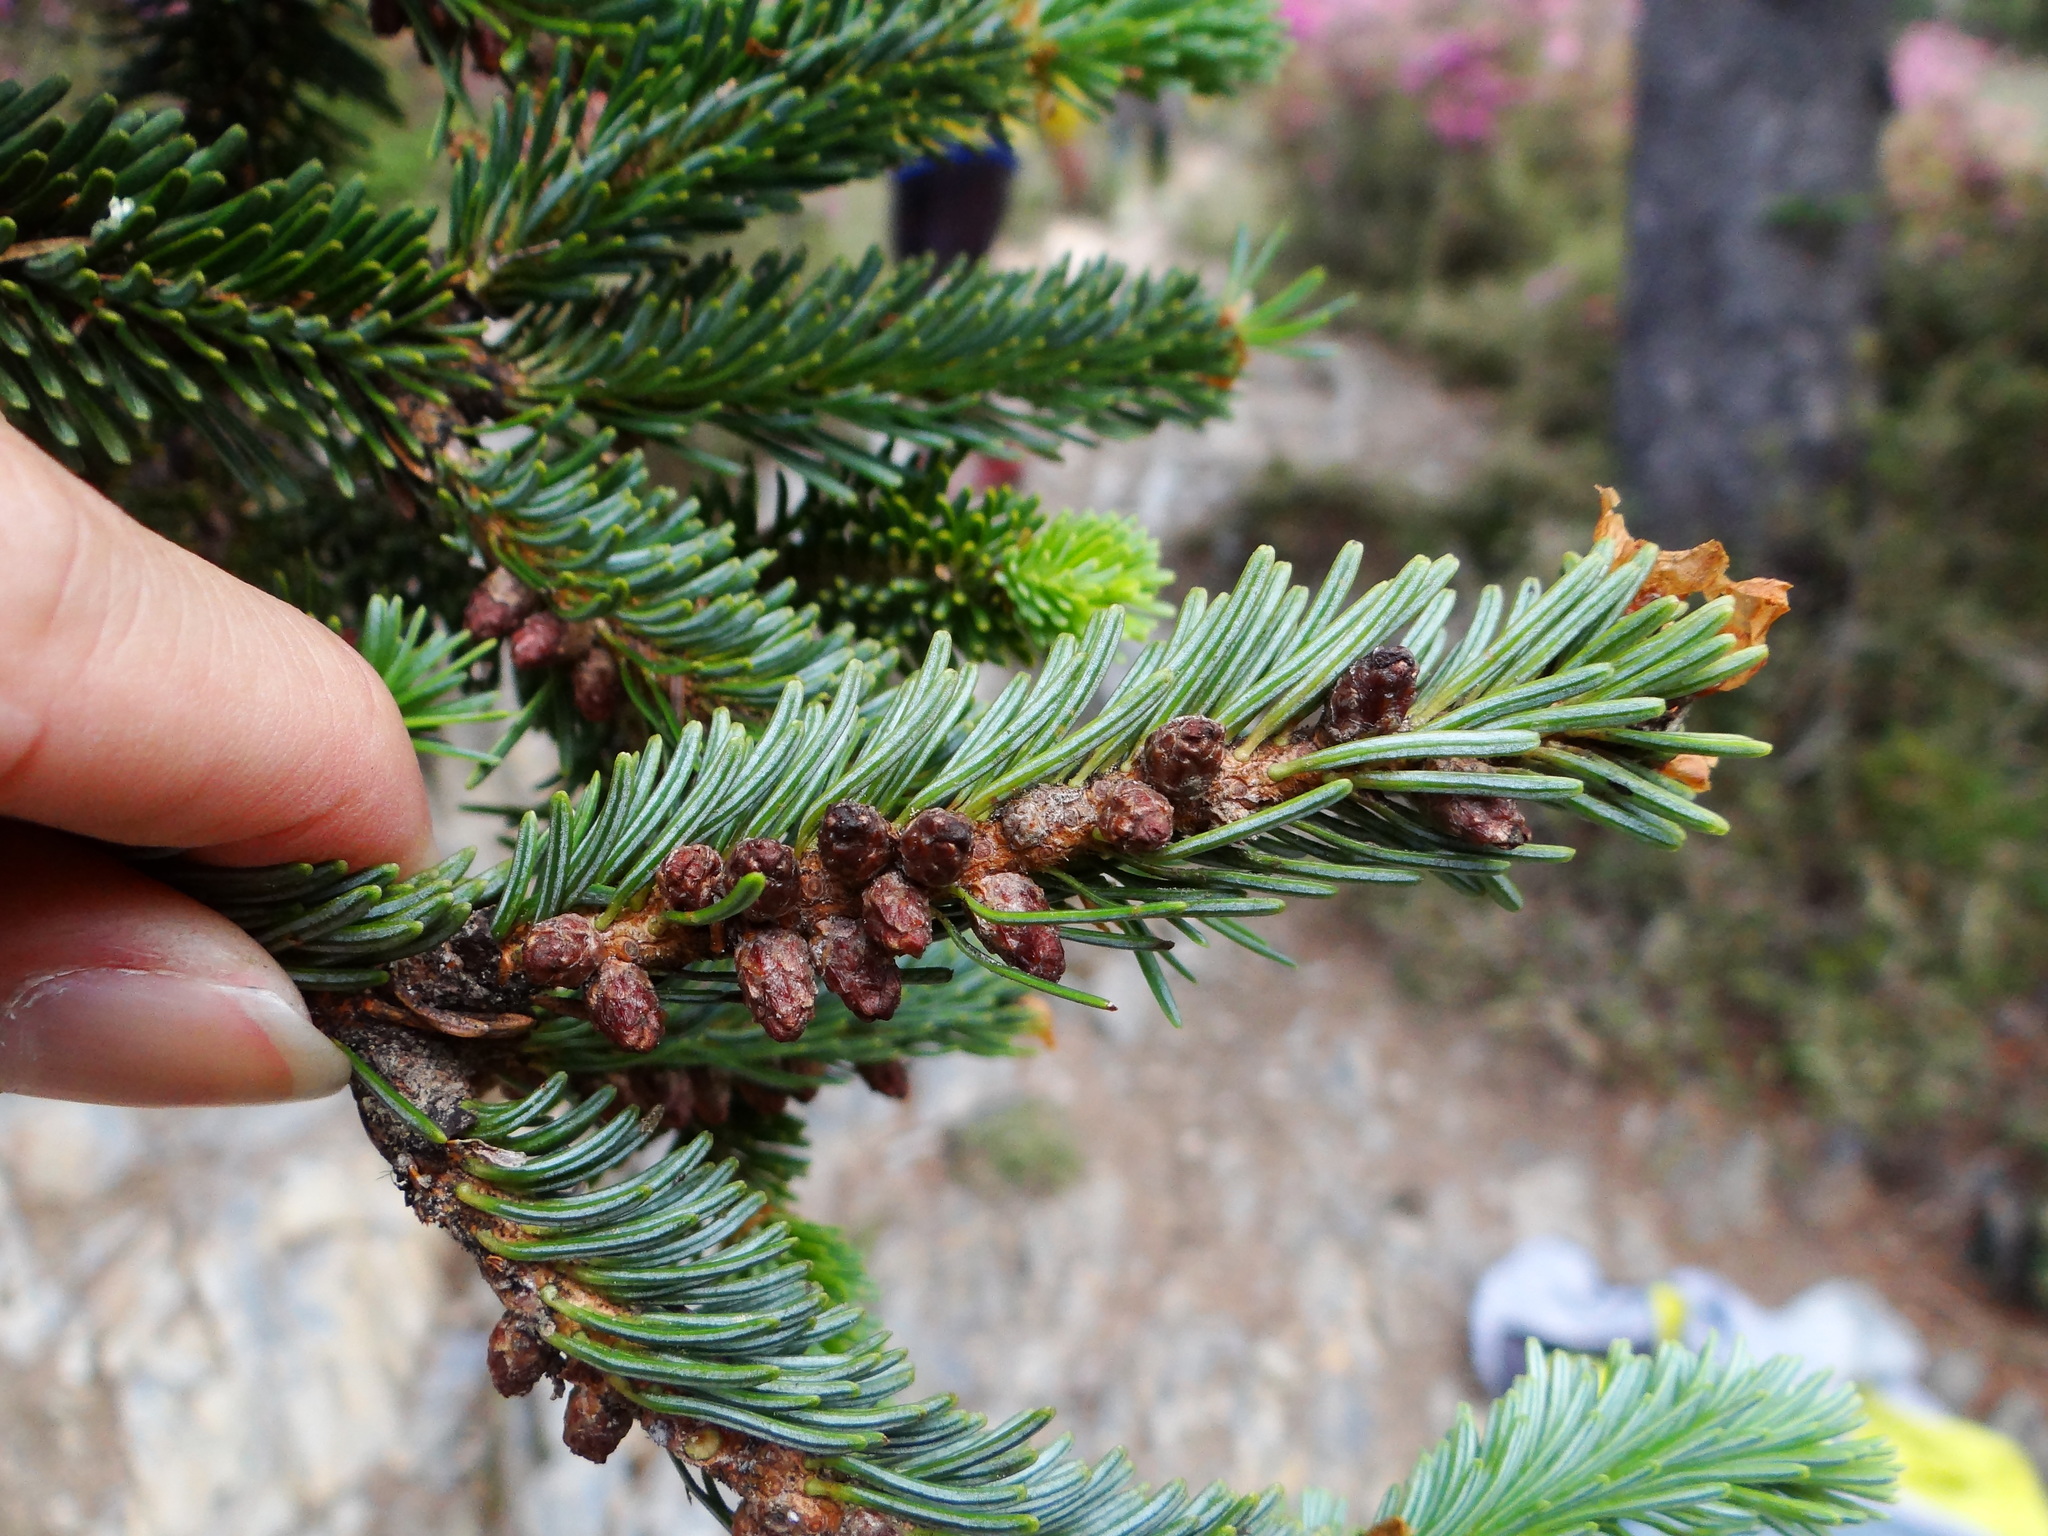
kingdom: Plantae
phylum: Tracheophyta
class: Pinopsida
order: Pinales
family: Pinaceae
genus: Abies
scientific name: Abies kawakamii
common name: Taiwan fir
